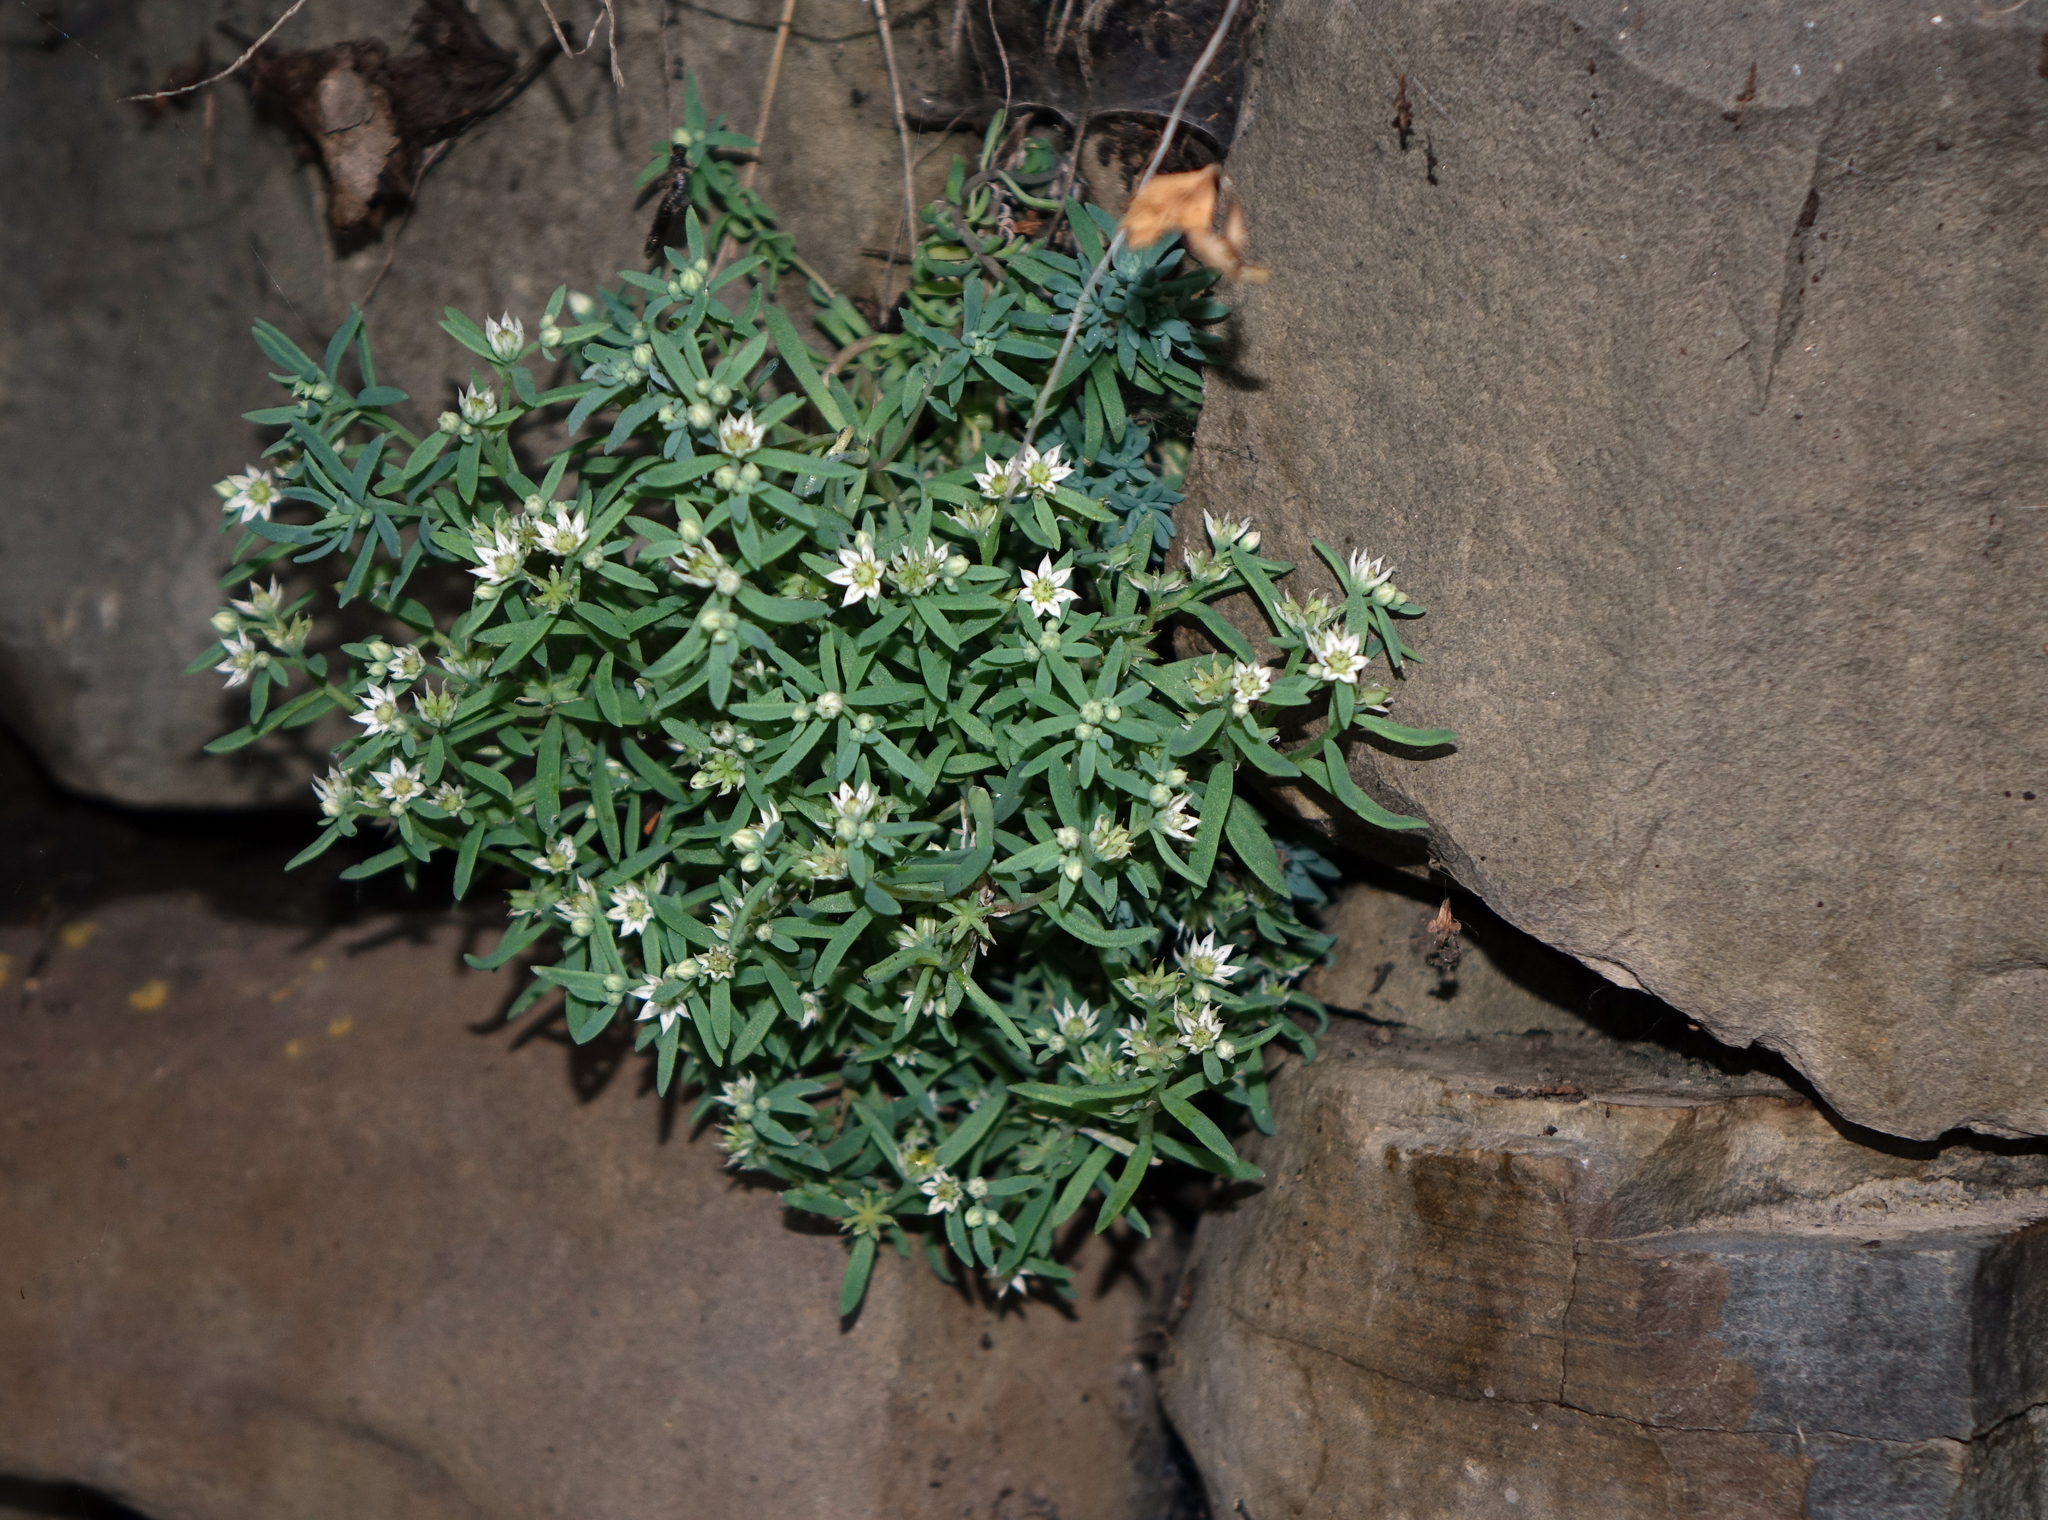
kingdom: Plantae
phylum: Tracheophyta
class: Magnoliopsida
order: Saxifragales
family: Crassulaceae
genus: Sedum
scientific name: Sedum hispanicum
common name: Spanish stonecrop
